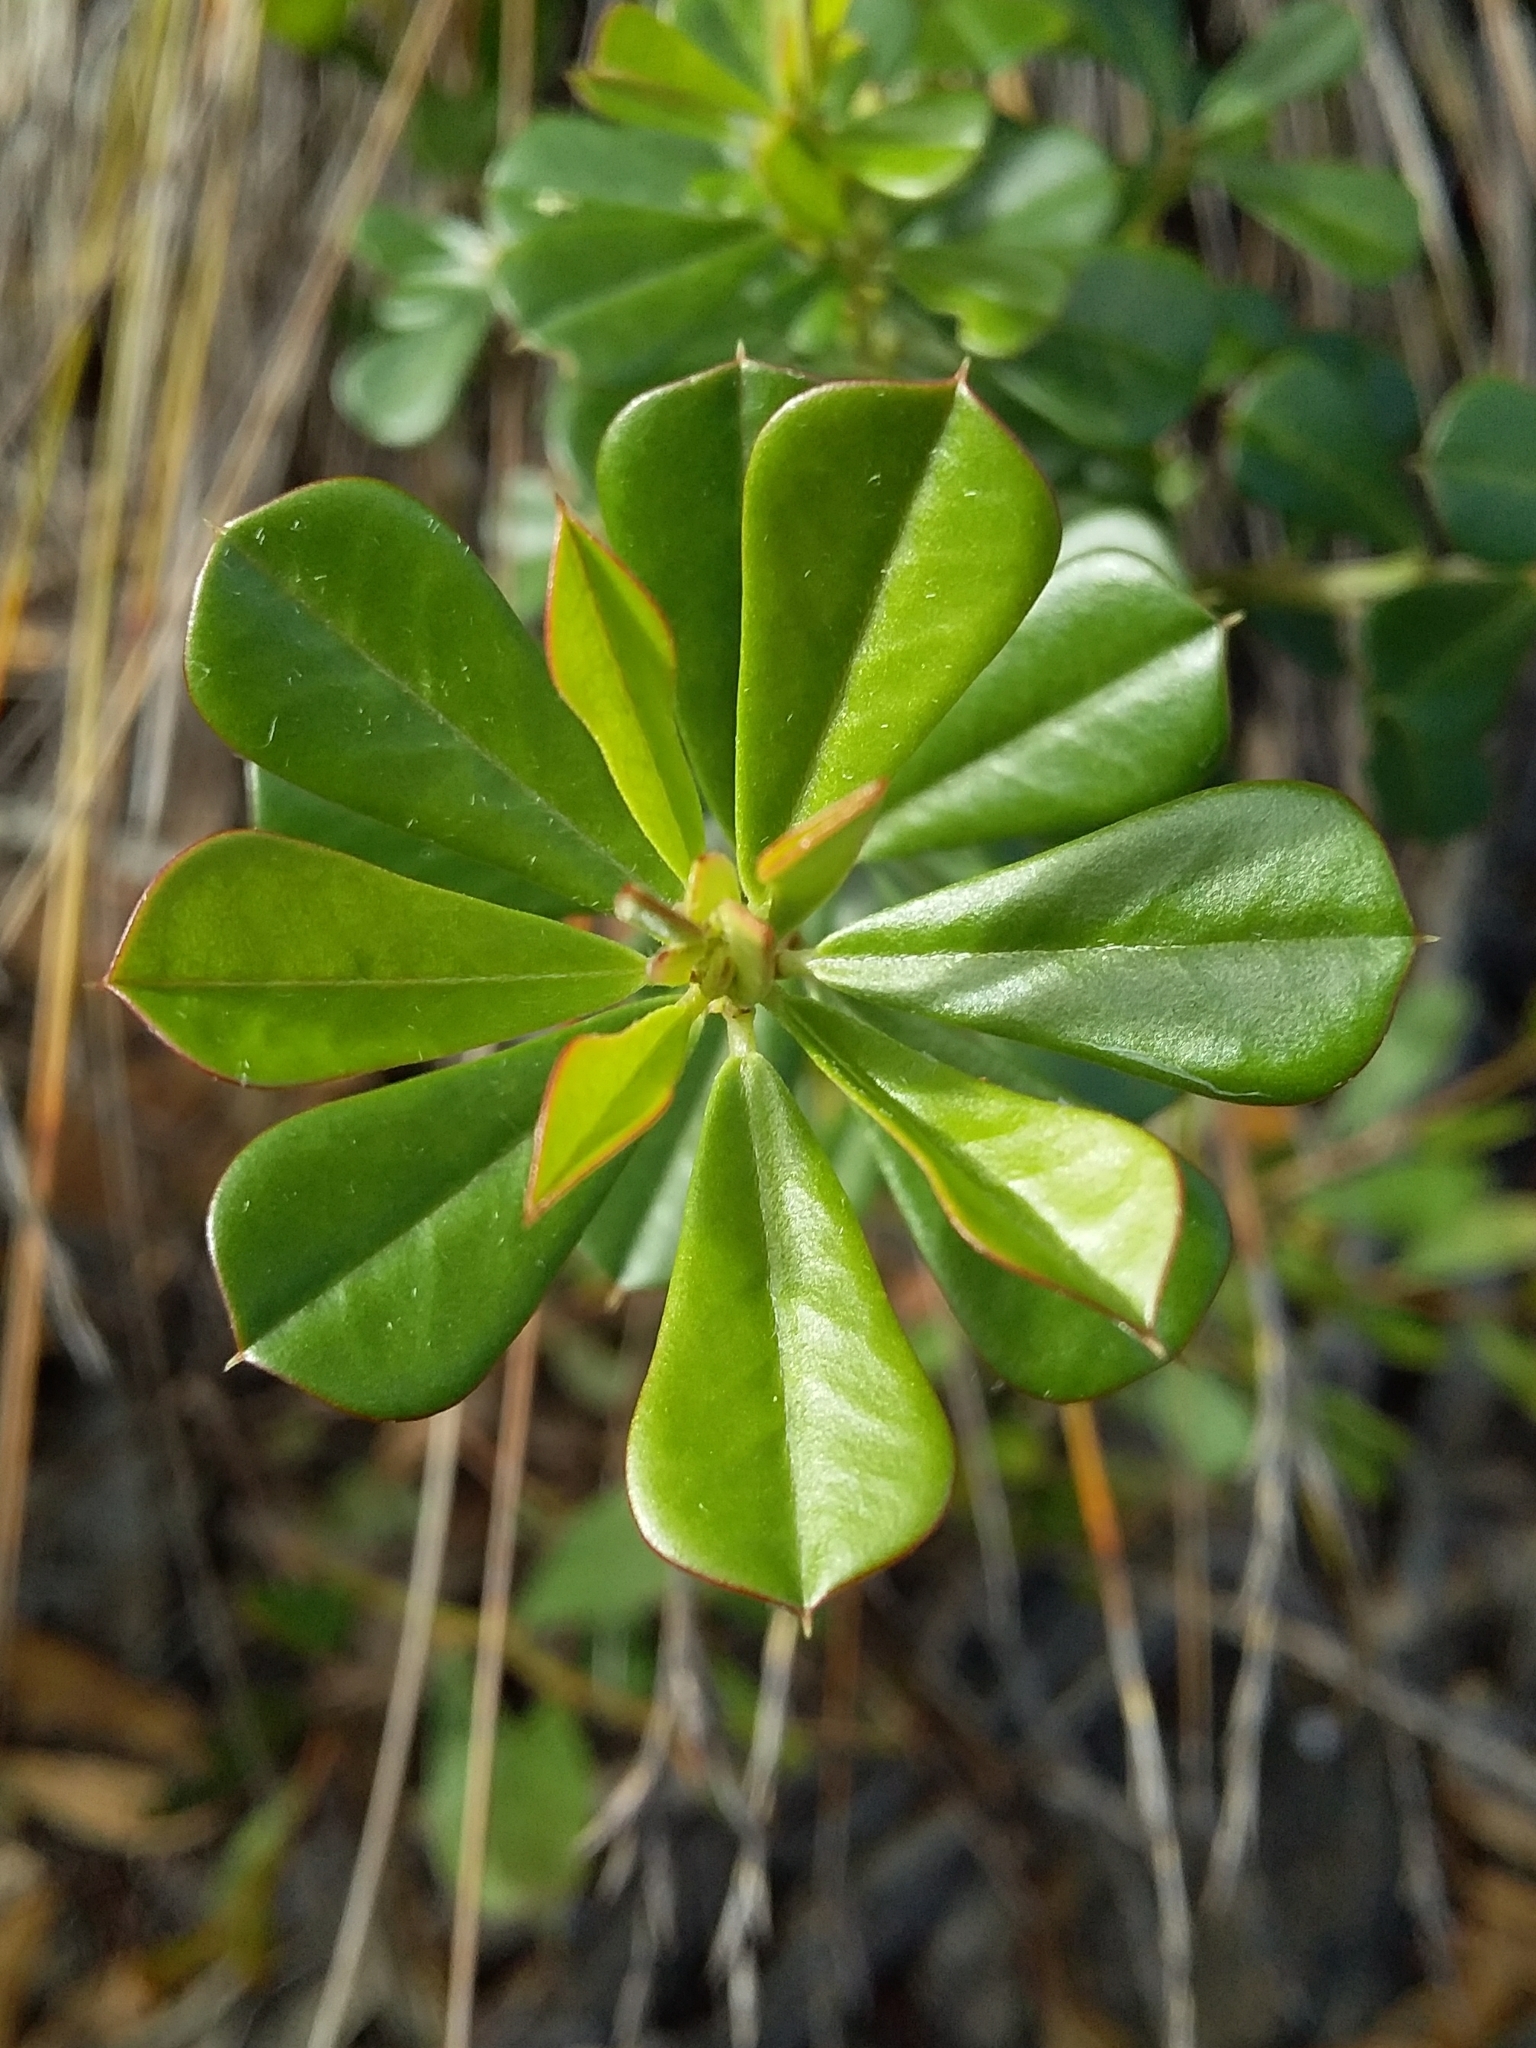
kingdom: Plantae
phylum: Tracheophyta
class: Magnoliopsida
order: Fabales
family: Fabaceae
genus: Pultenaea
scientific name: Pultenaea daphnoides
